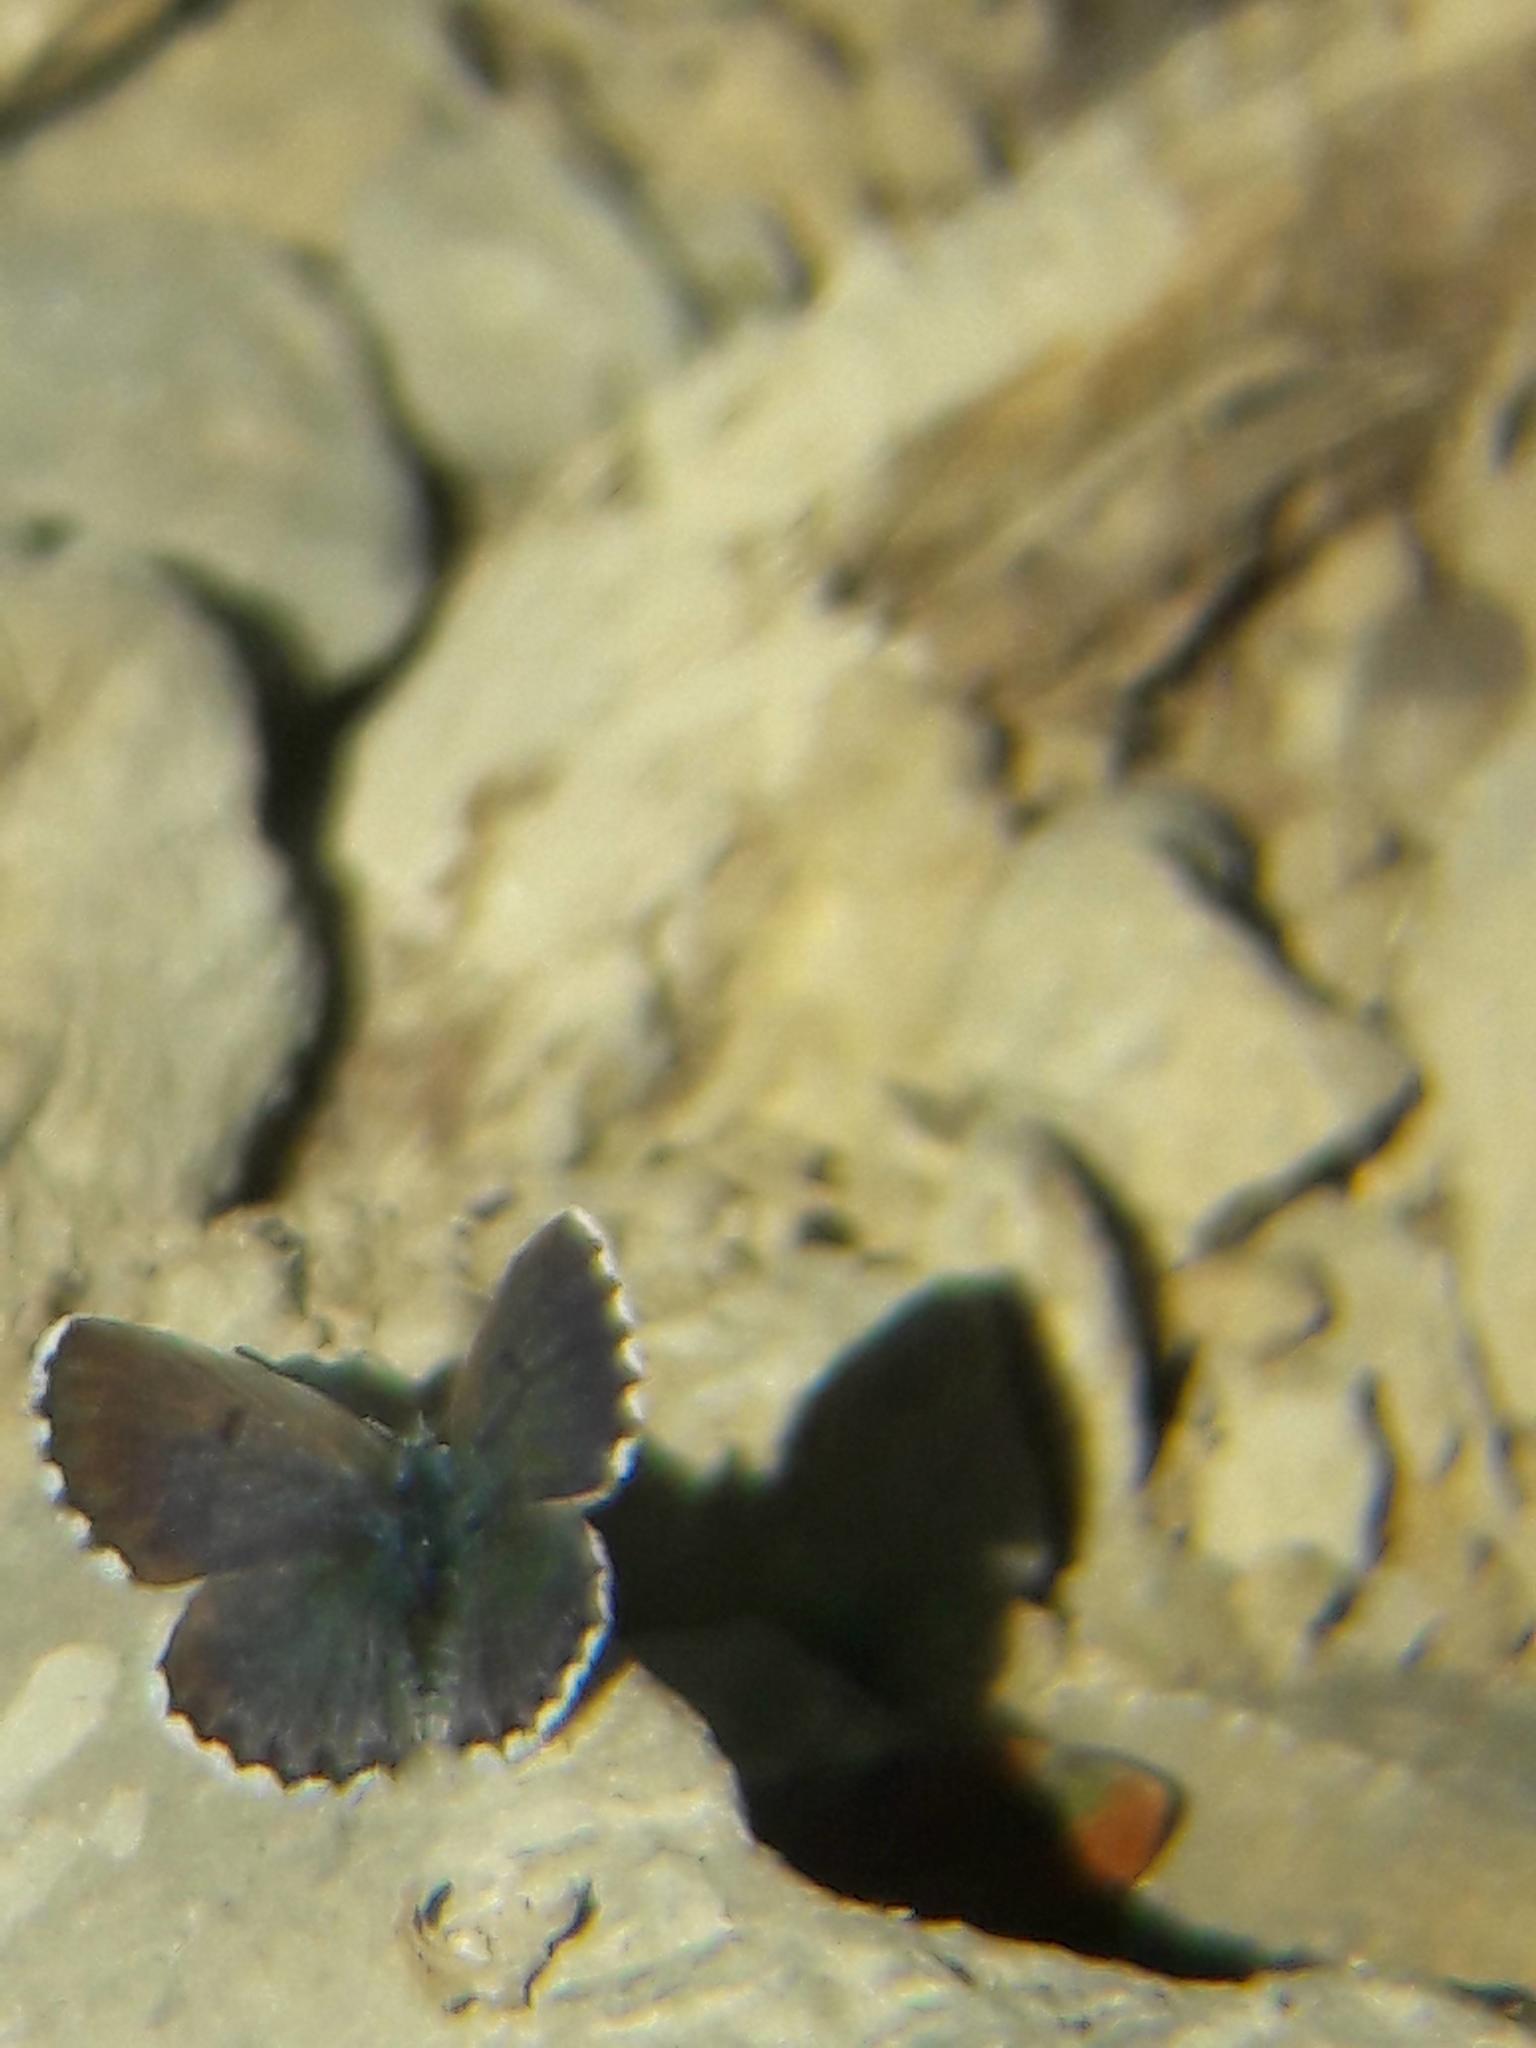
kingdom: Animalia
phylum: Arthropoda
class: Insecta
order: Lepidoptera
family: Lycaenidae
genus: Pseudophilotes
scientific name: Pseudophilotes baton
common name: Baton blue
